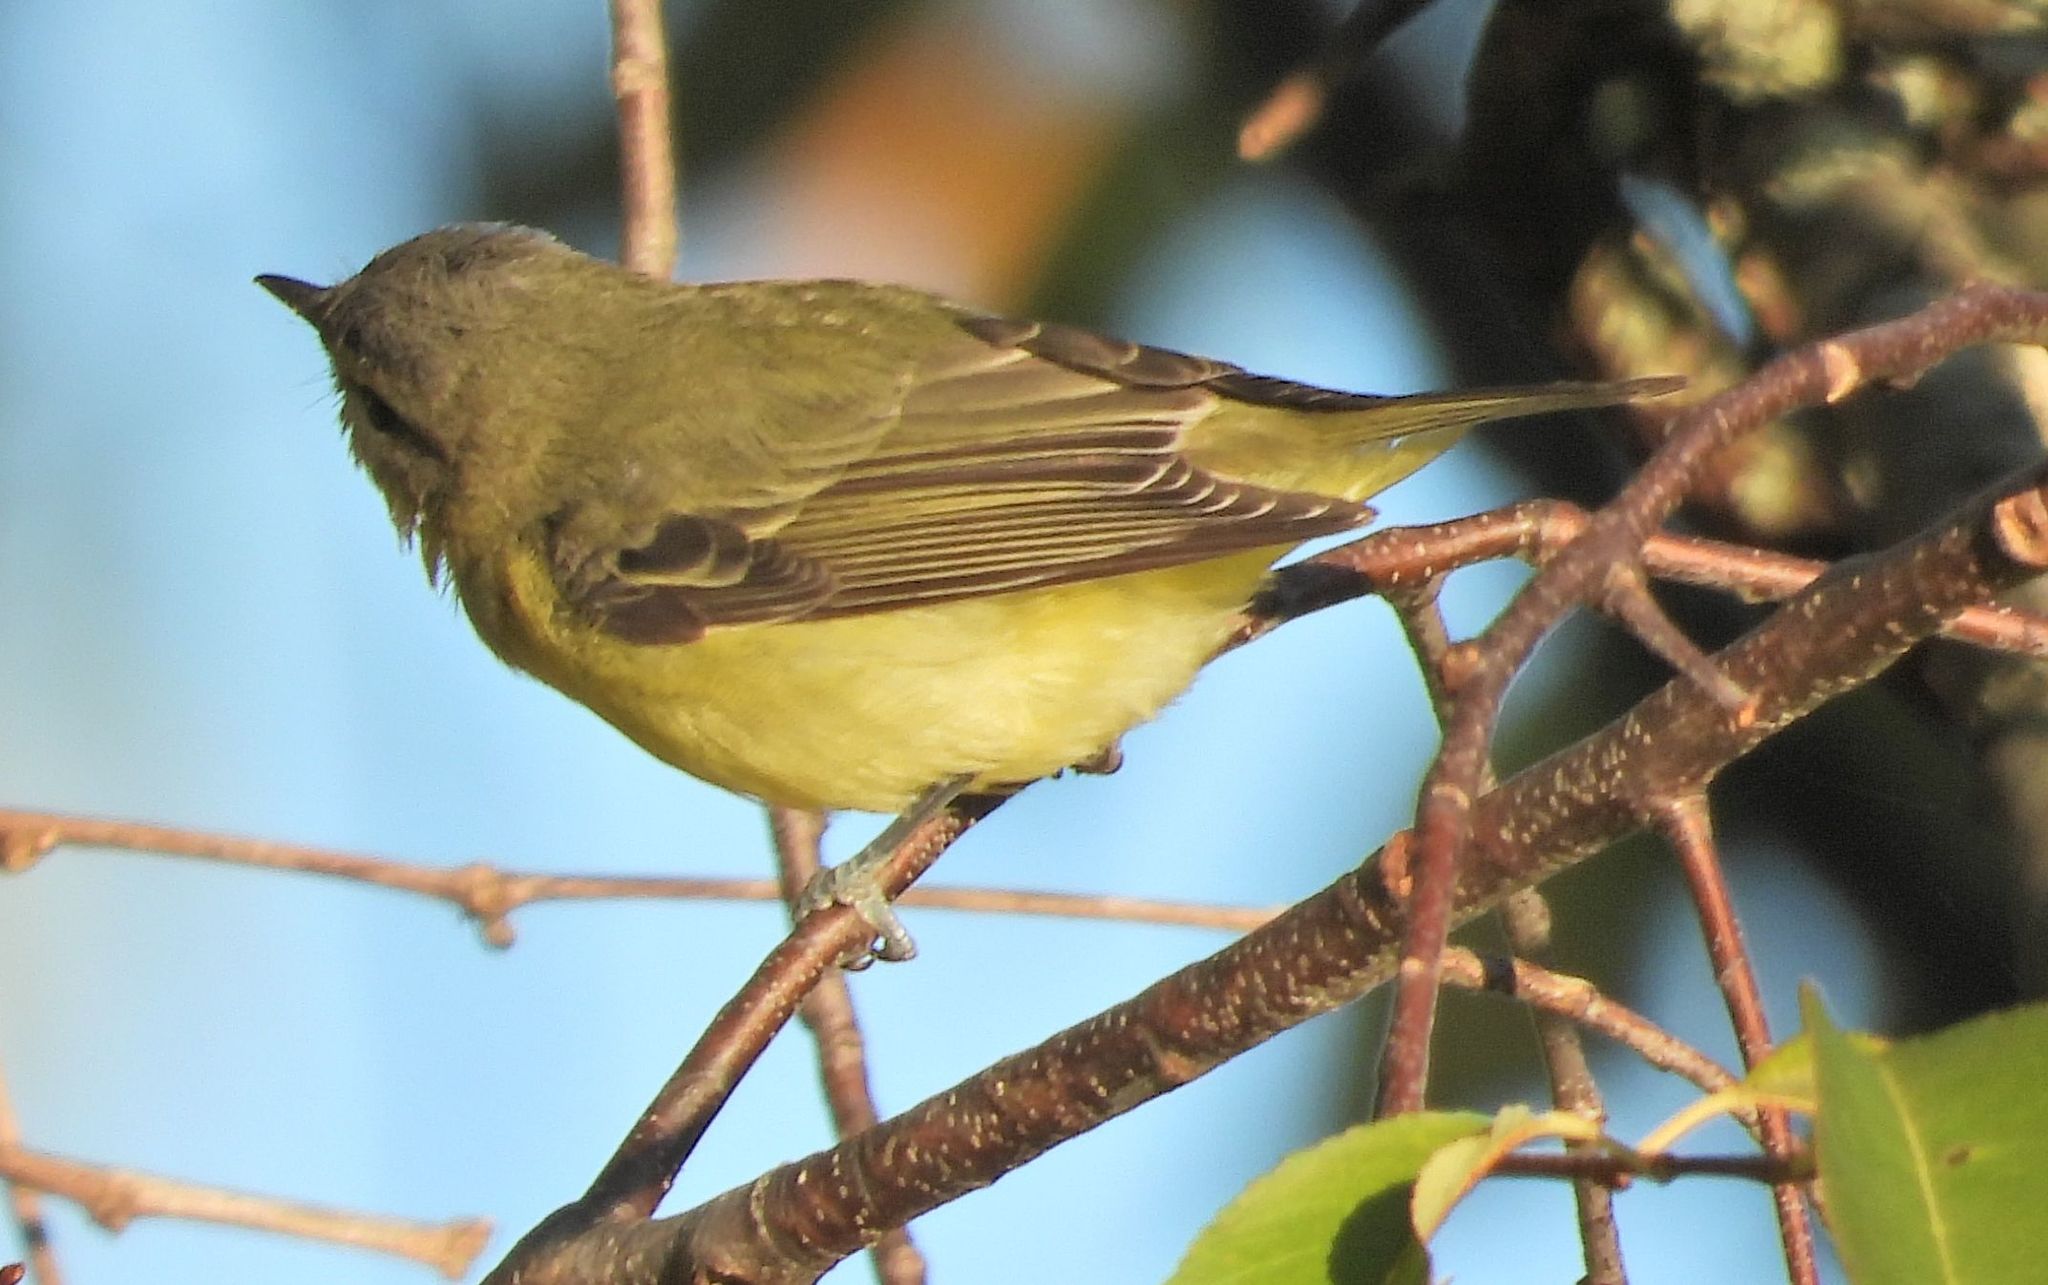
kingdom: Animalia
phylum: Chordata
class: Aves
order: Passeriformes
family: Vireonidae
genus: Vireo
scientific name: Vireo philadelphicus
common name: Philadelphia vireo
